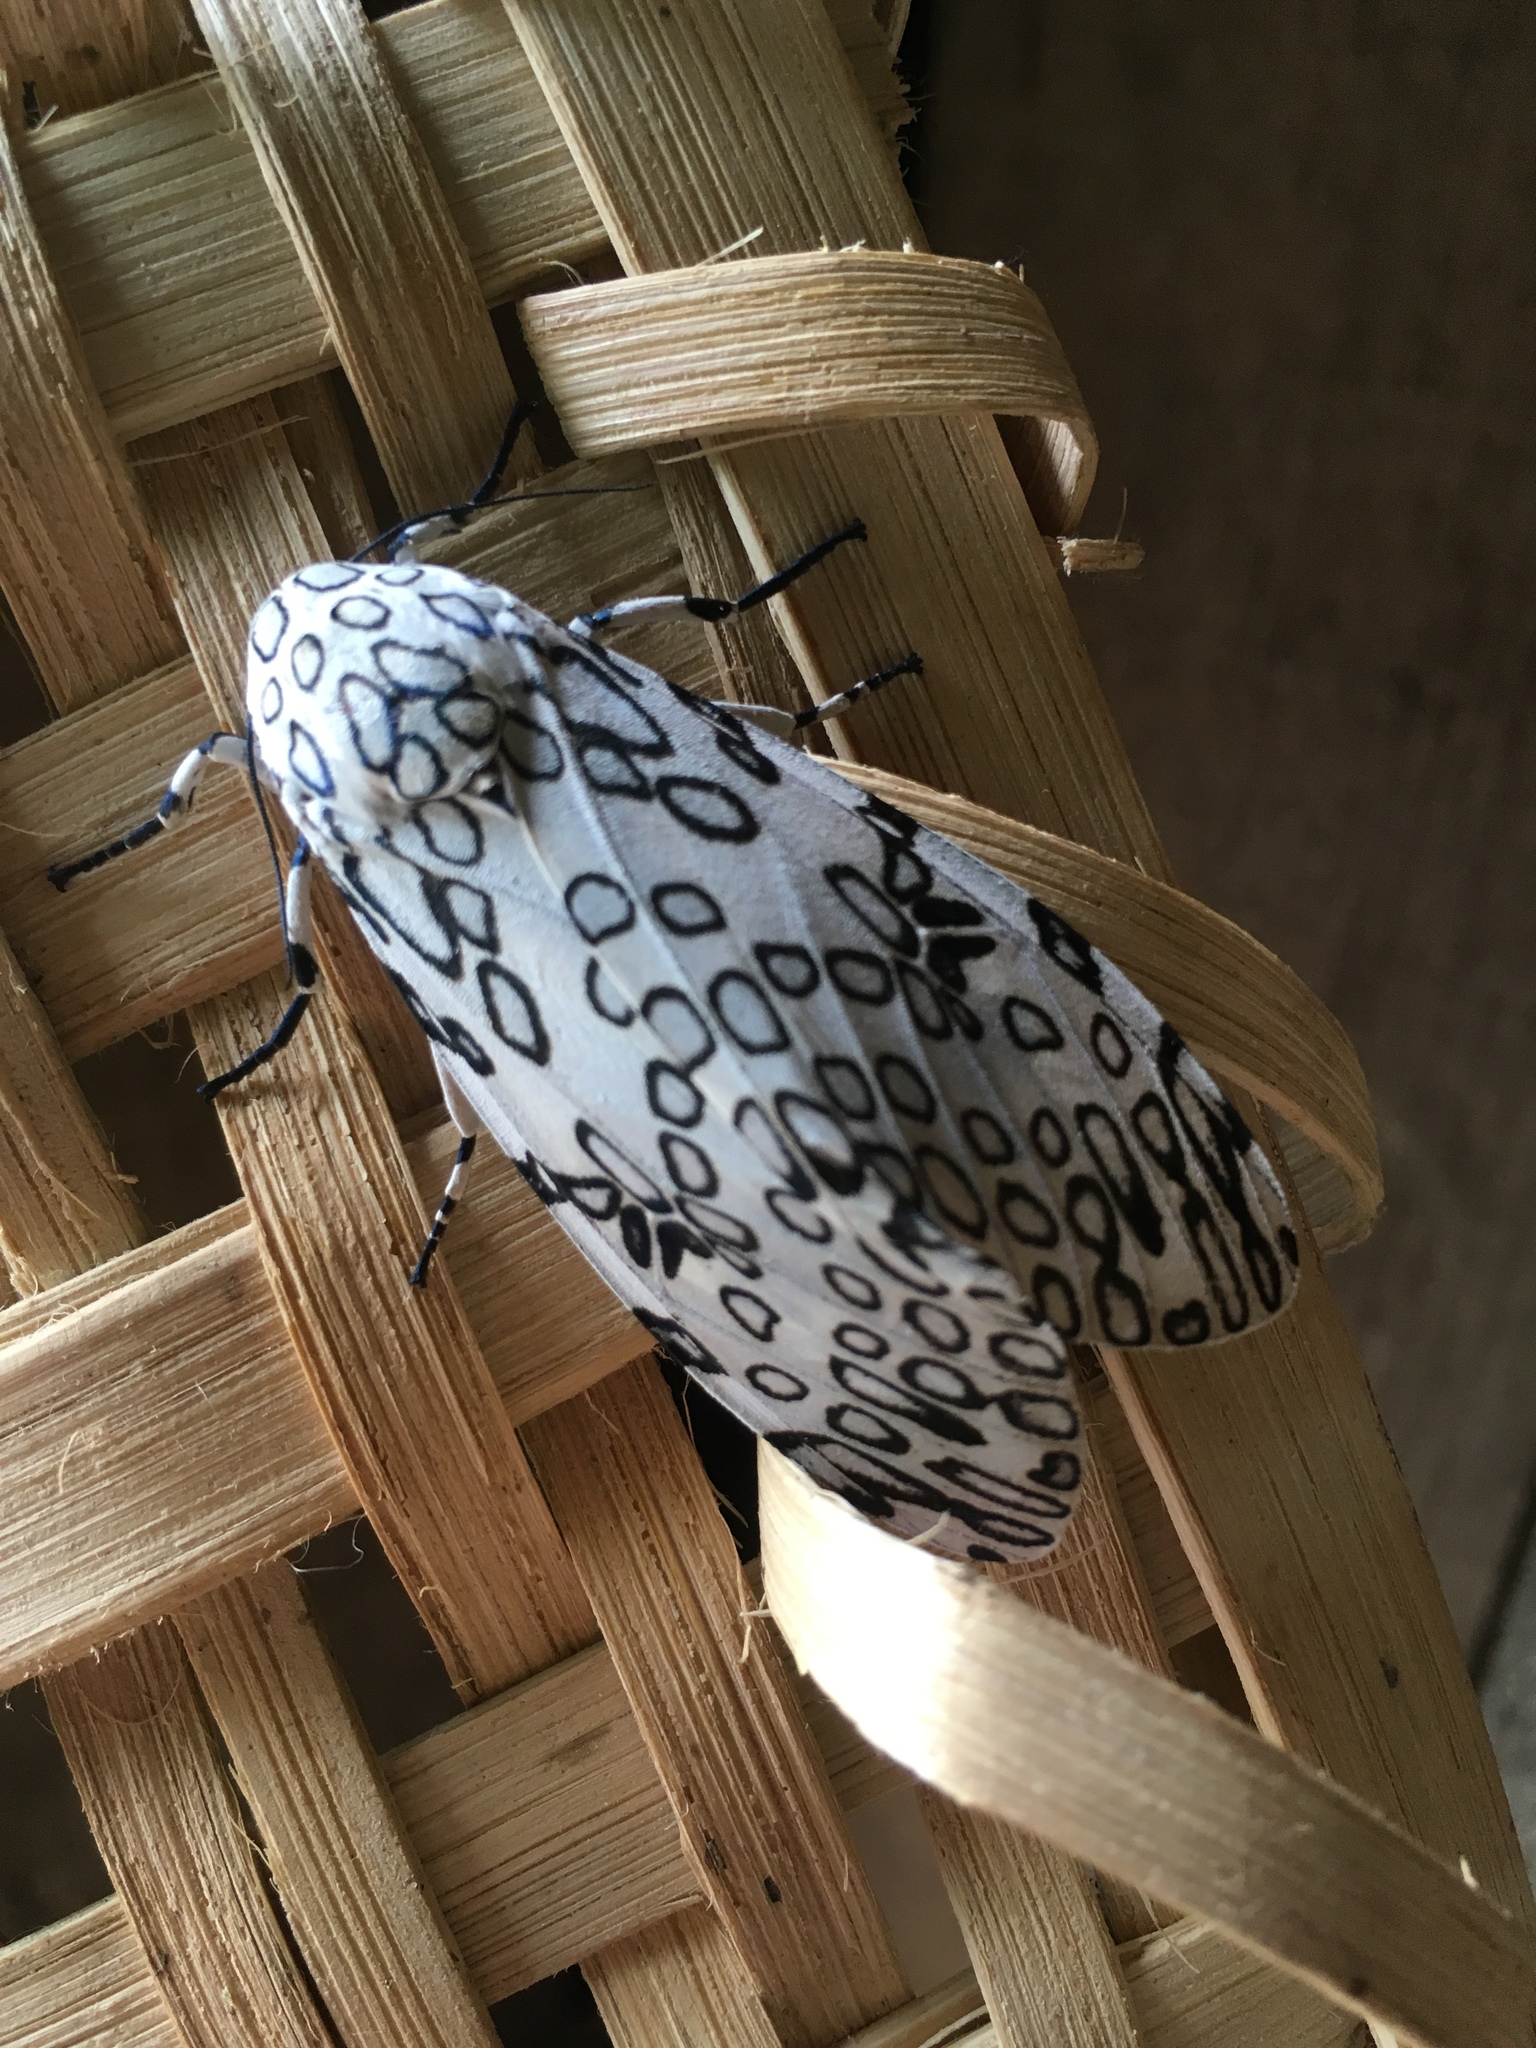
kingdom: Animalia
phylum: Arthropoda
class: Insecta
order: Lepidoptera
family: Erebidae
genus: Hypercompe
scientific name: Hypercompe scribonia
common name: Giant leopard moth
